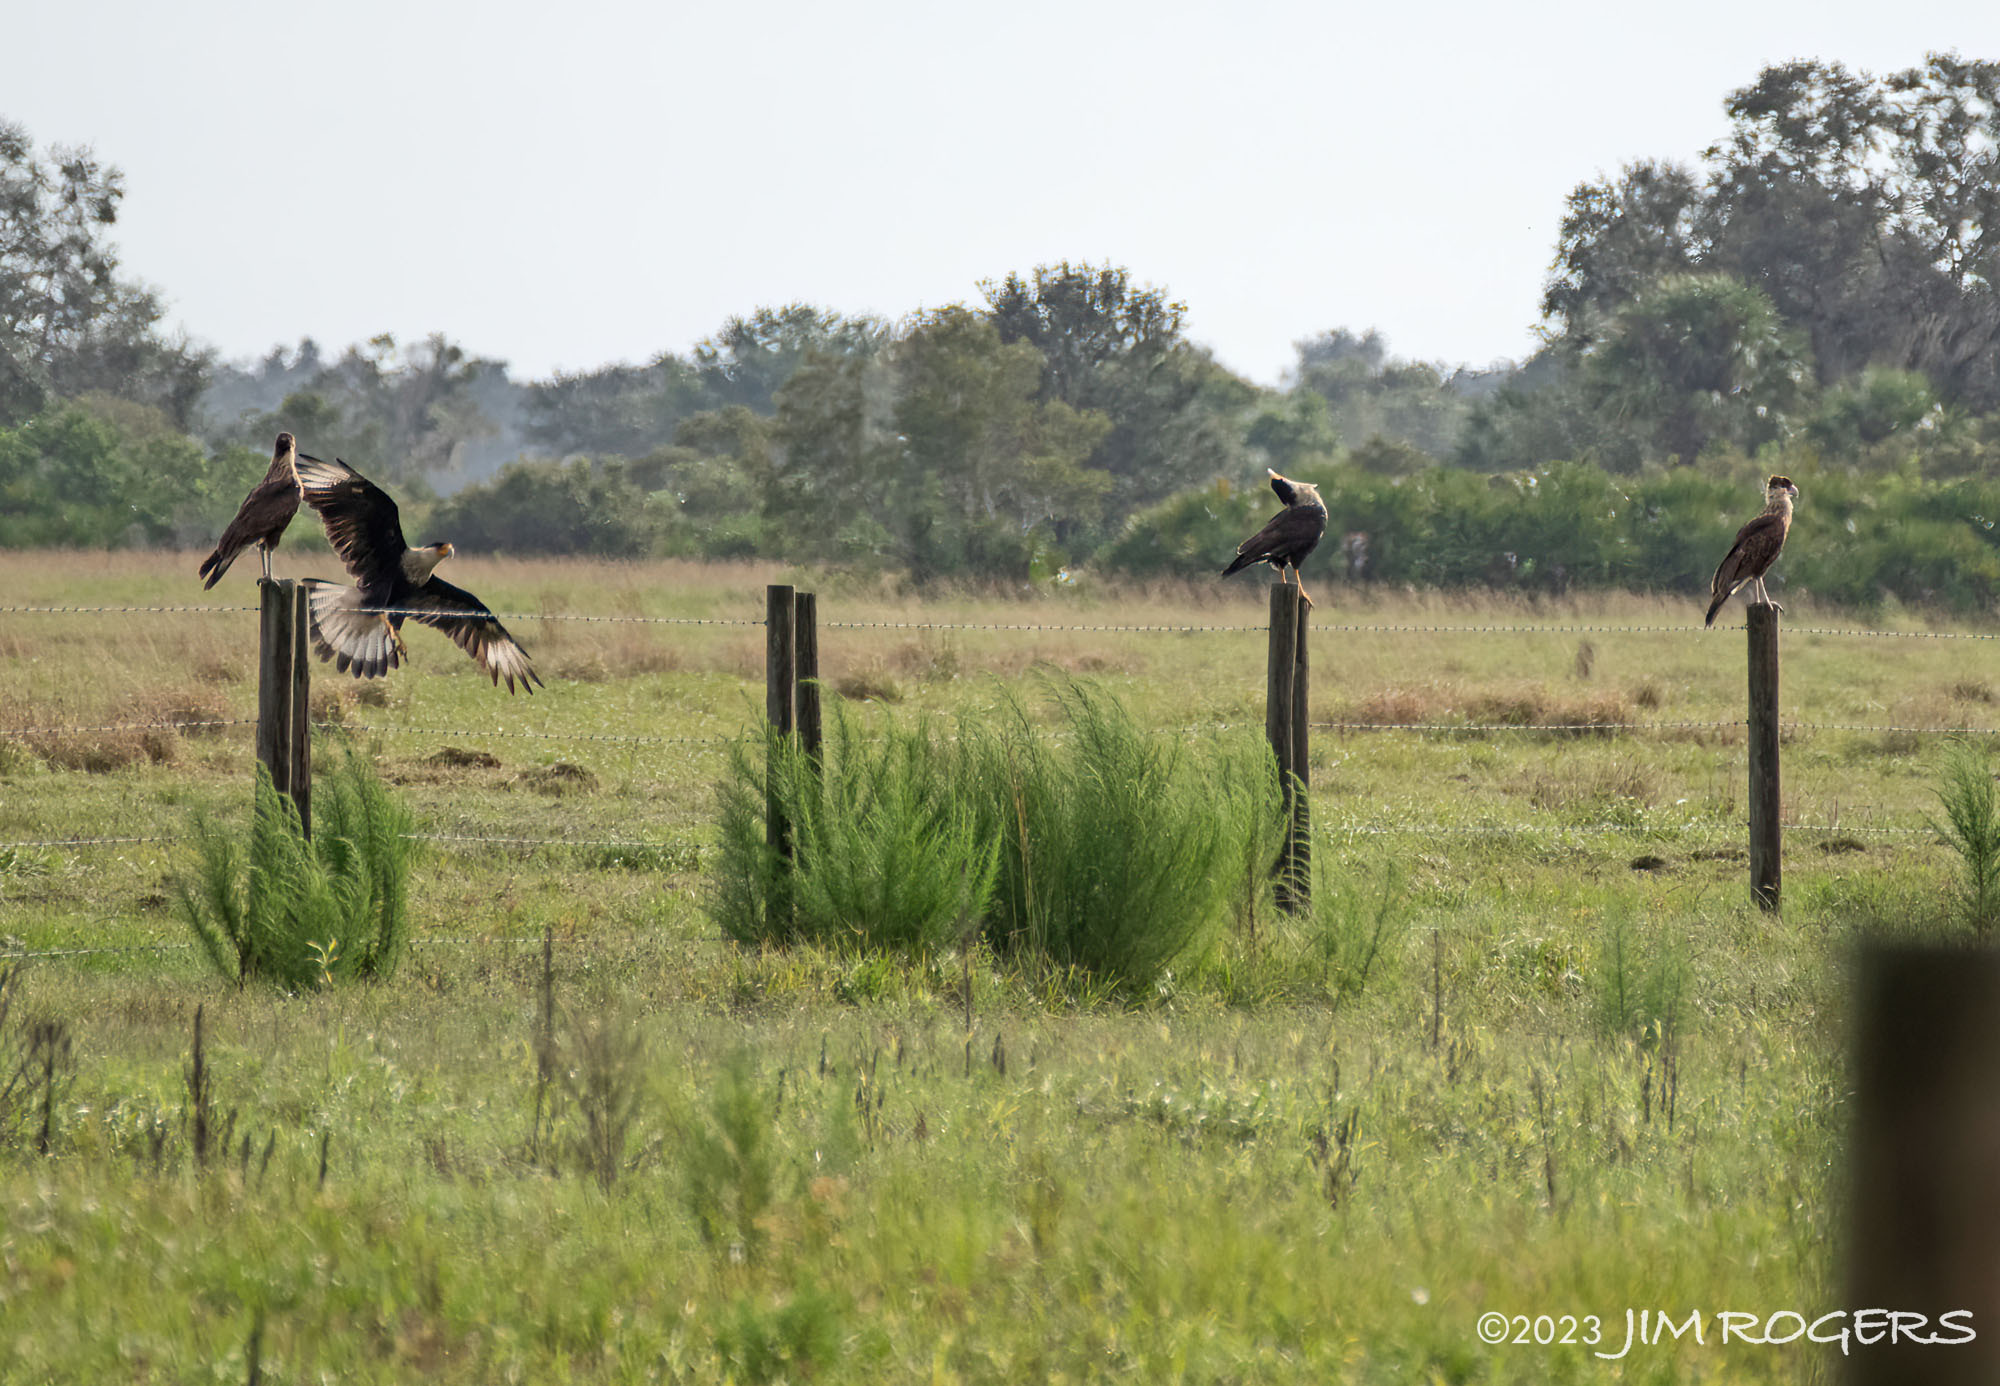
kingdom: Animalia
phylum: Chordata
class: Aves
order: Falconiformes
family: Falconidae
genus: Caracara
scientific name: Caracara plancus
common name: Southern caracara
